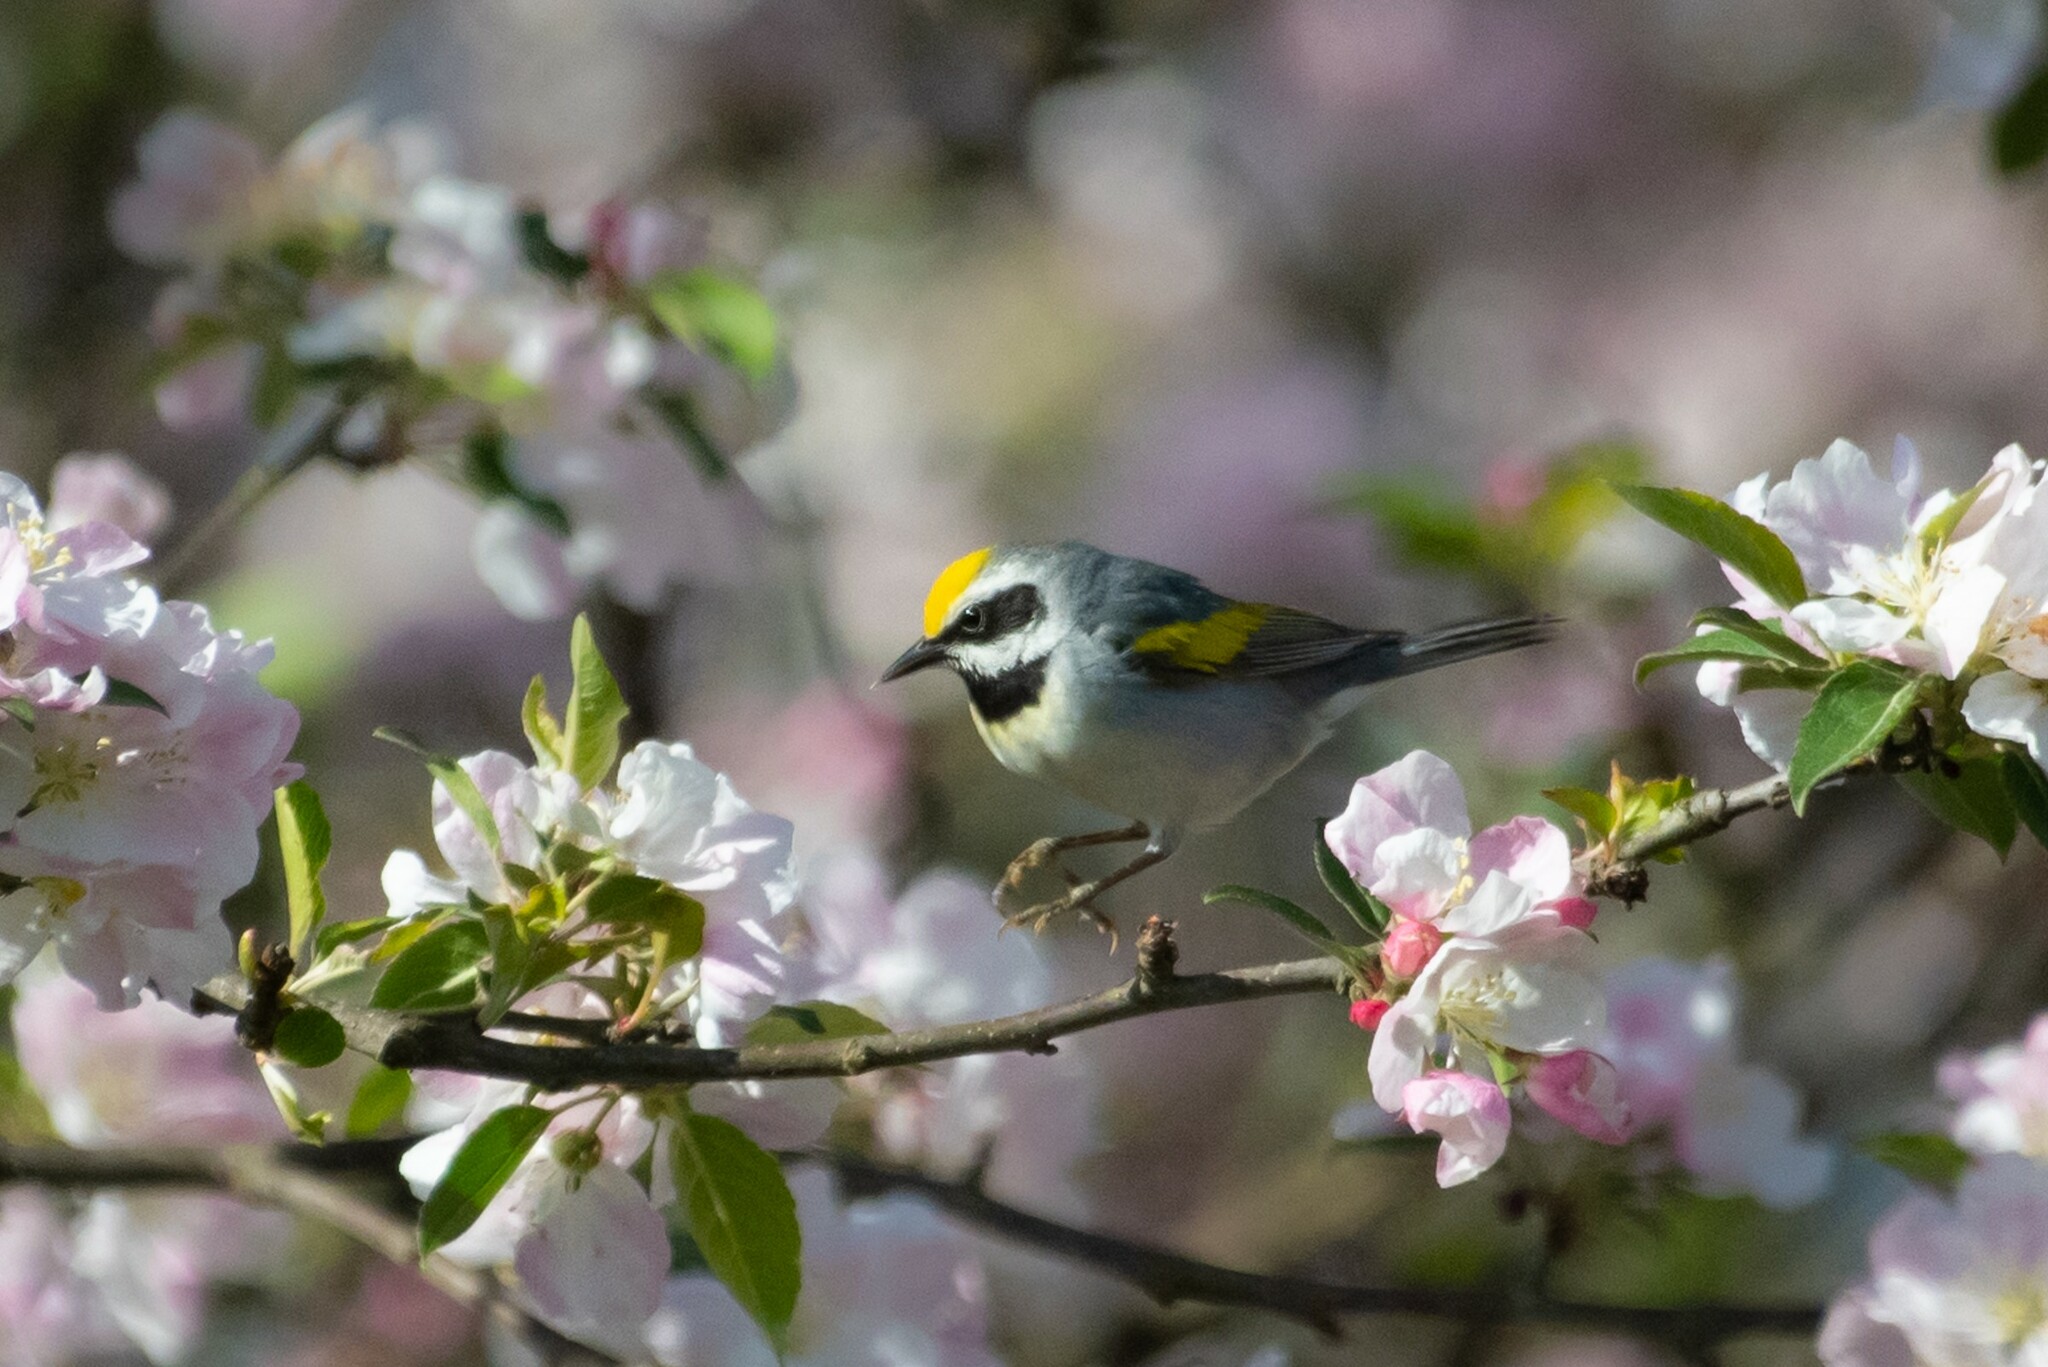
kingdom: Animalia
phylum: Chordata
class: Aves
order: Passeriformes
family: Parulidae
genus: Vermivora
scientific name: Vermivora chrysoptera
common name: Golden-winged warbler
